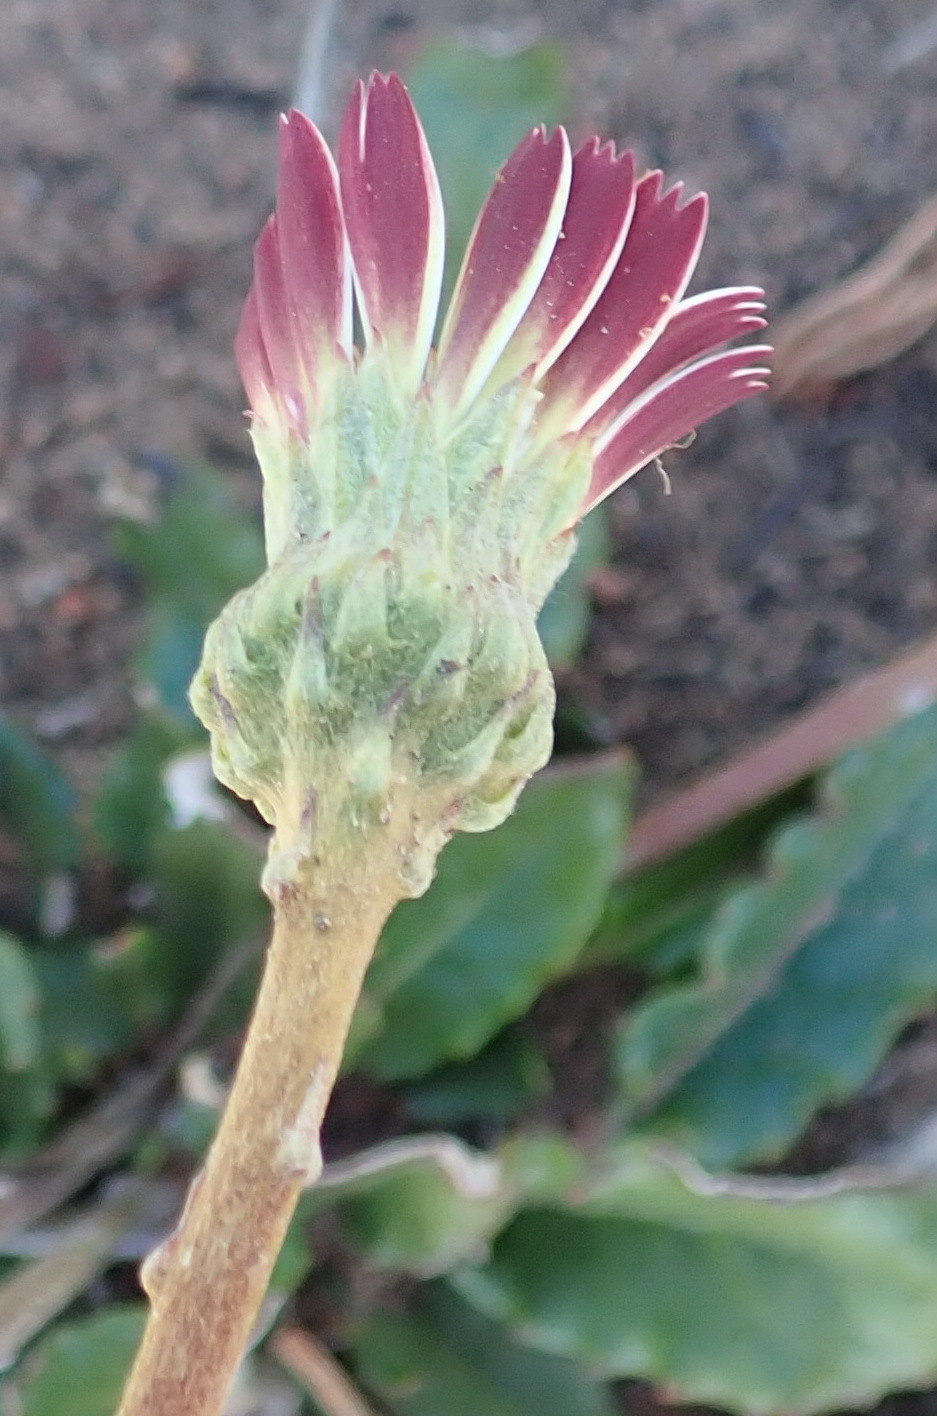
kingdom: Plantae
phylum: Tracheophyta
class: Magnoliopsida
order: Asterales
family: Asteraceae
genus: Gerbera
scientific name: Gerbera serrata
